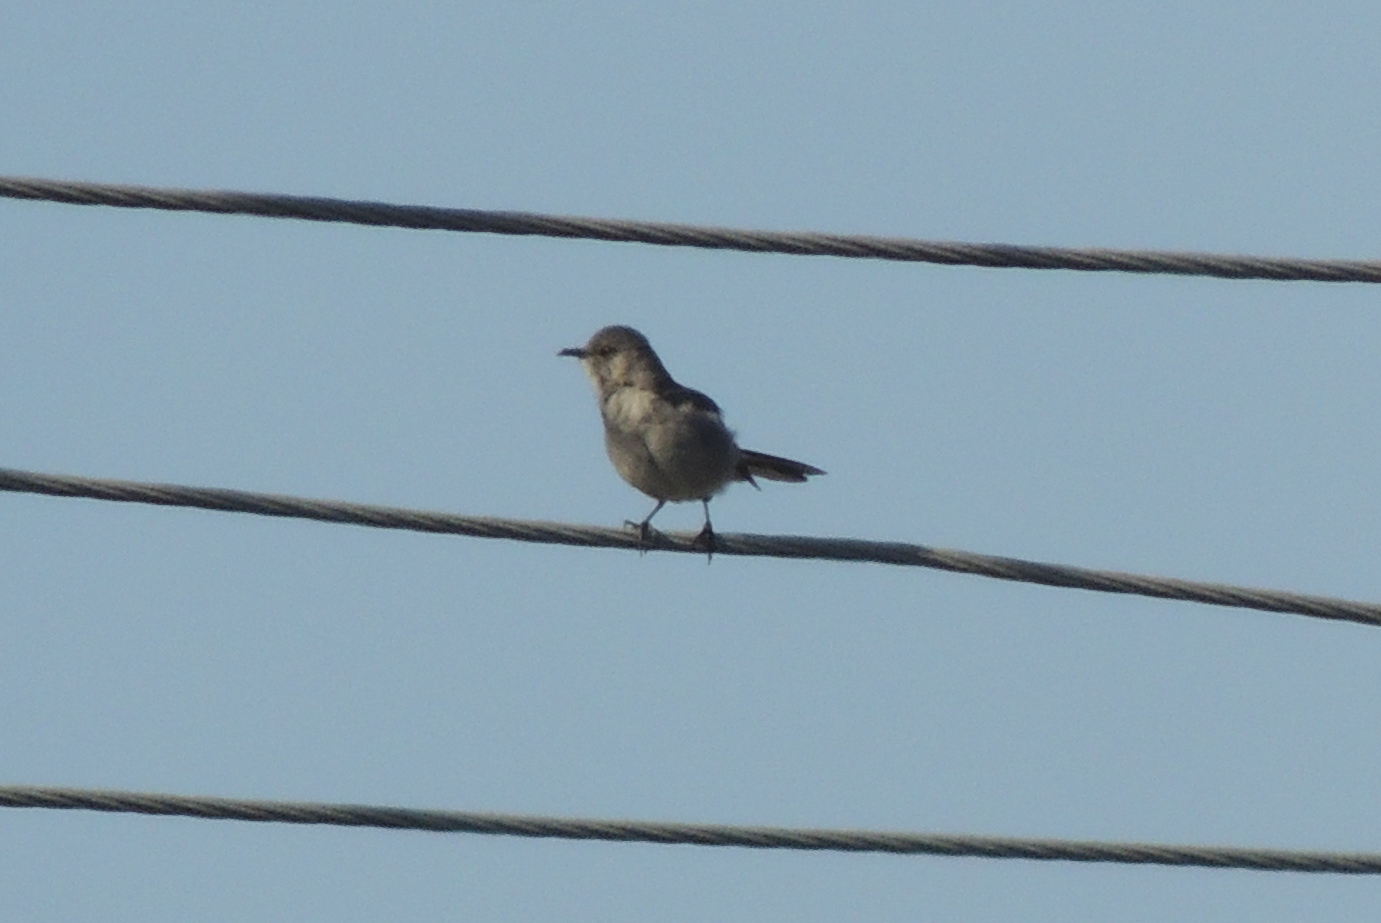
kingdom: Animalia
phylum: Chordata
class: Aves
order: Passeriformes
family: Mimidae
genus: Mimus
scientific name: Mimus polyglottos
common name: Northern mockingbird
